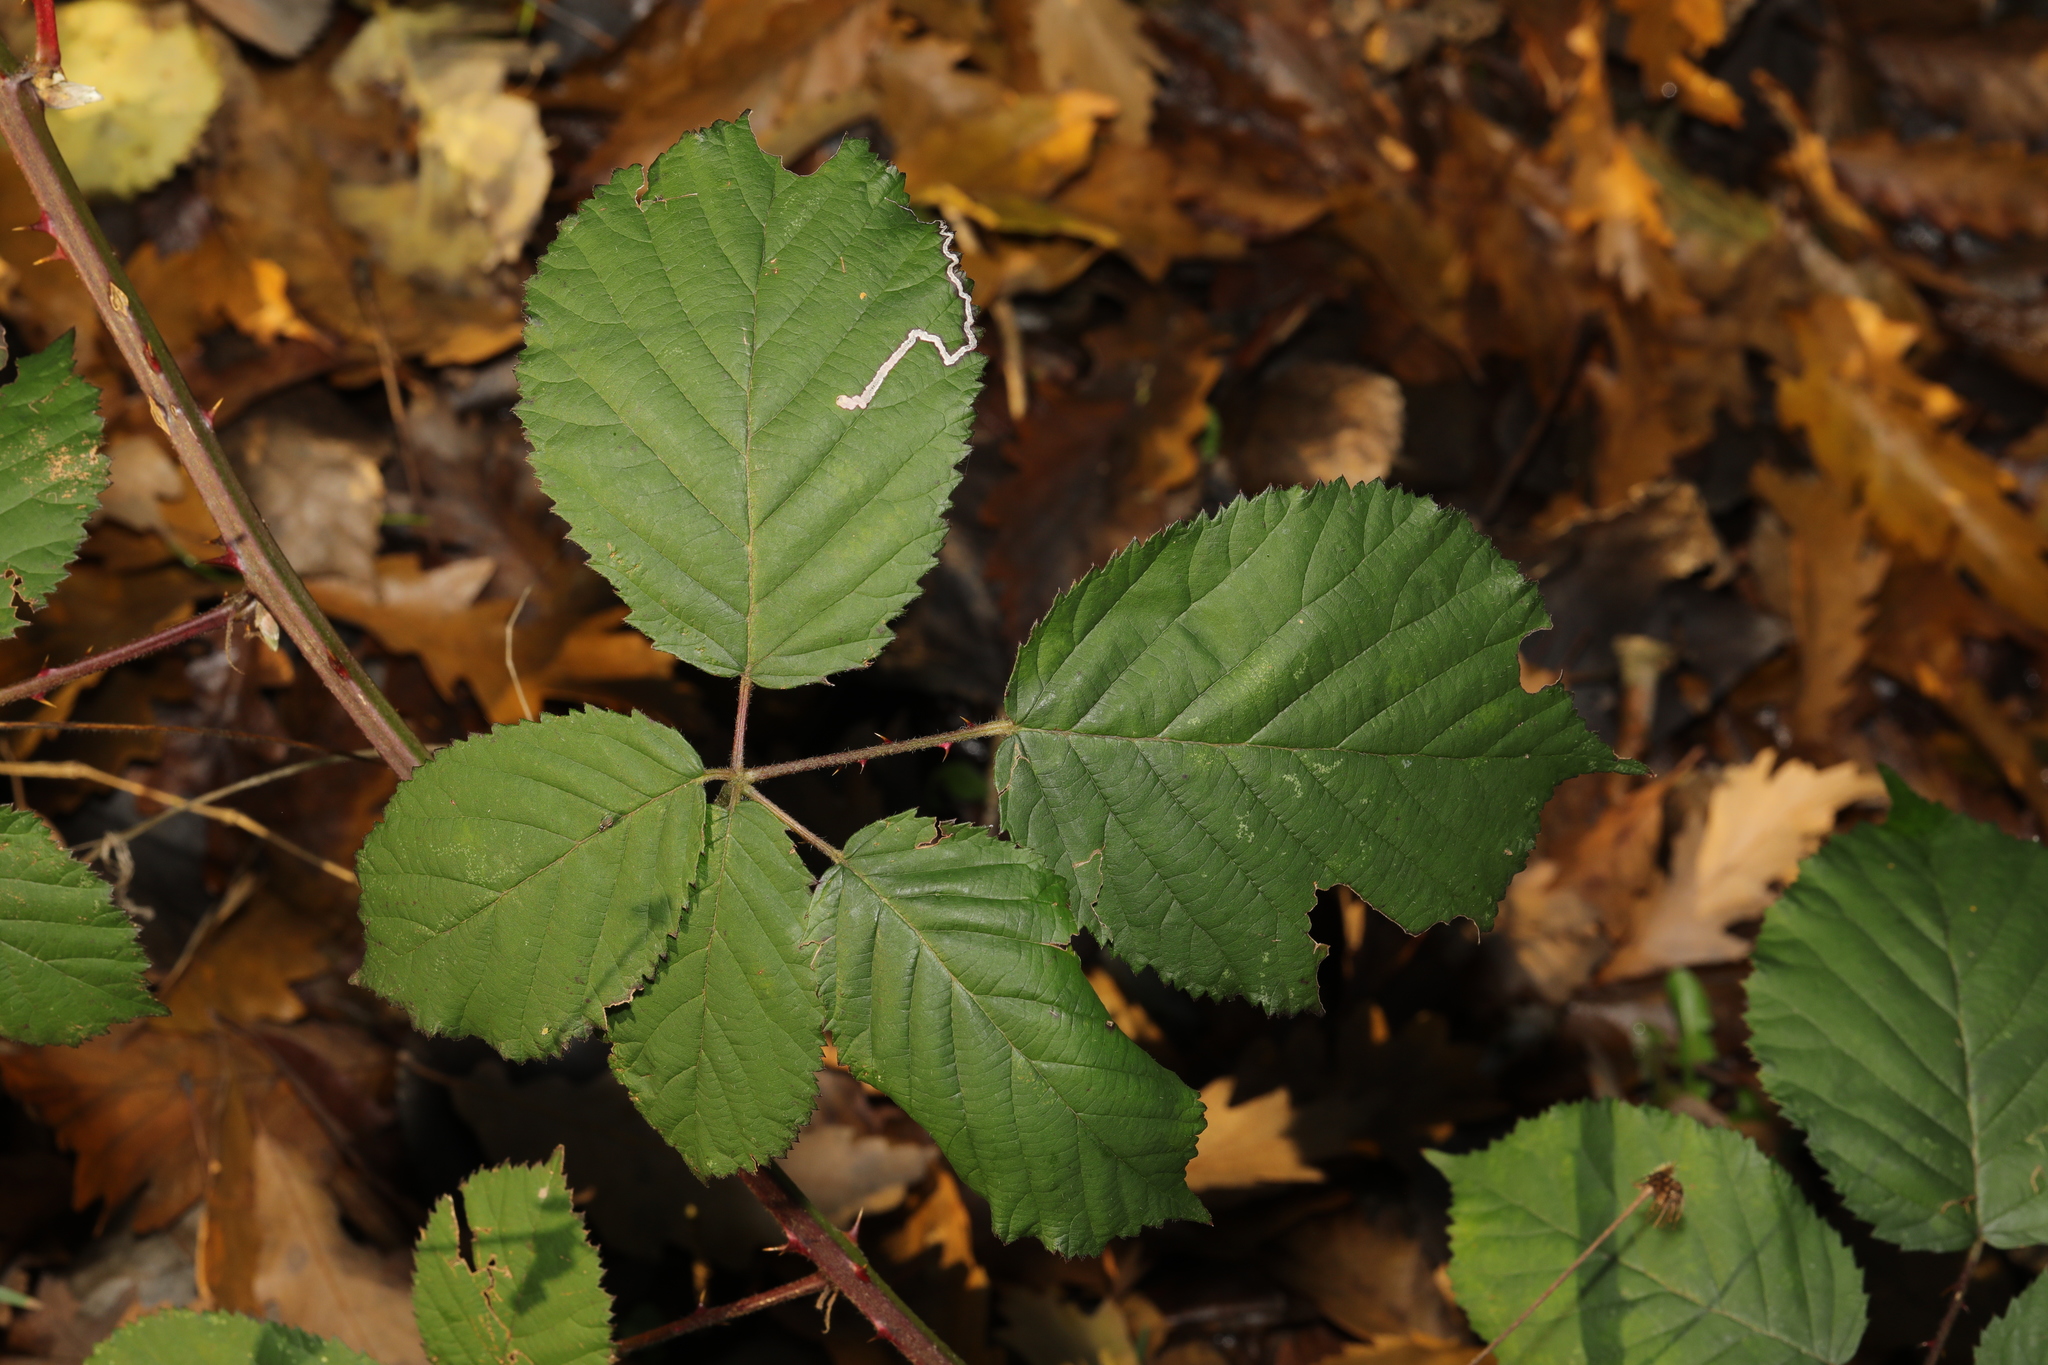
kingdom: Plantae
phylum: Tracheophyta
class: Magnoliopsida
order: Rosales
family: Rosaceae
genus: Rubus
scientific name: Rubus armeniacus
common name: Himalayan blackberry
